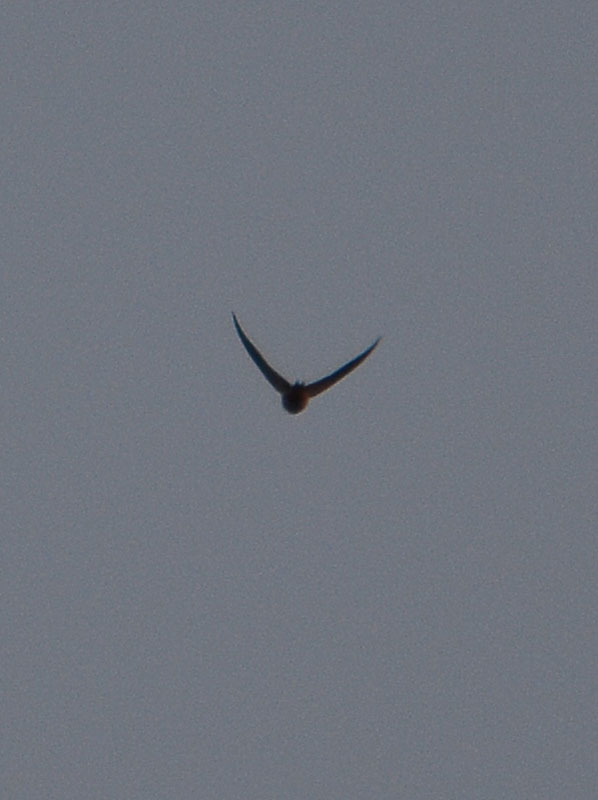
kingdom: Animalia
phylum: Chordata
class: Aves
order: Passeriformes
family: Hirundinidae
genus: Hirundo
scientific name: Hirundo rustica
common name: Barn swallow
